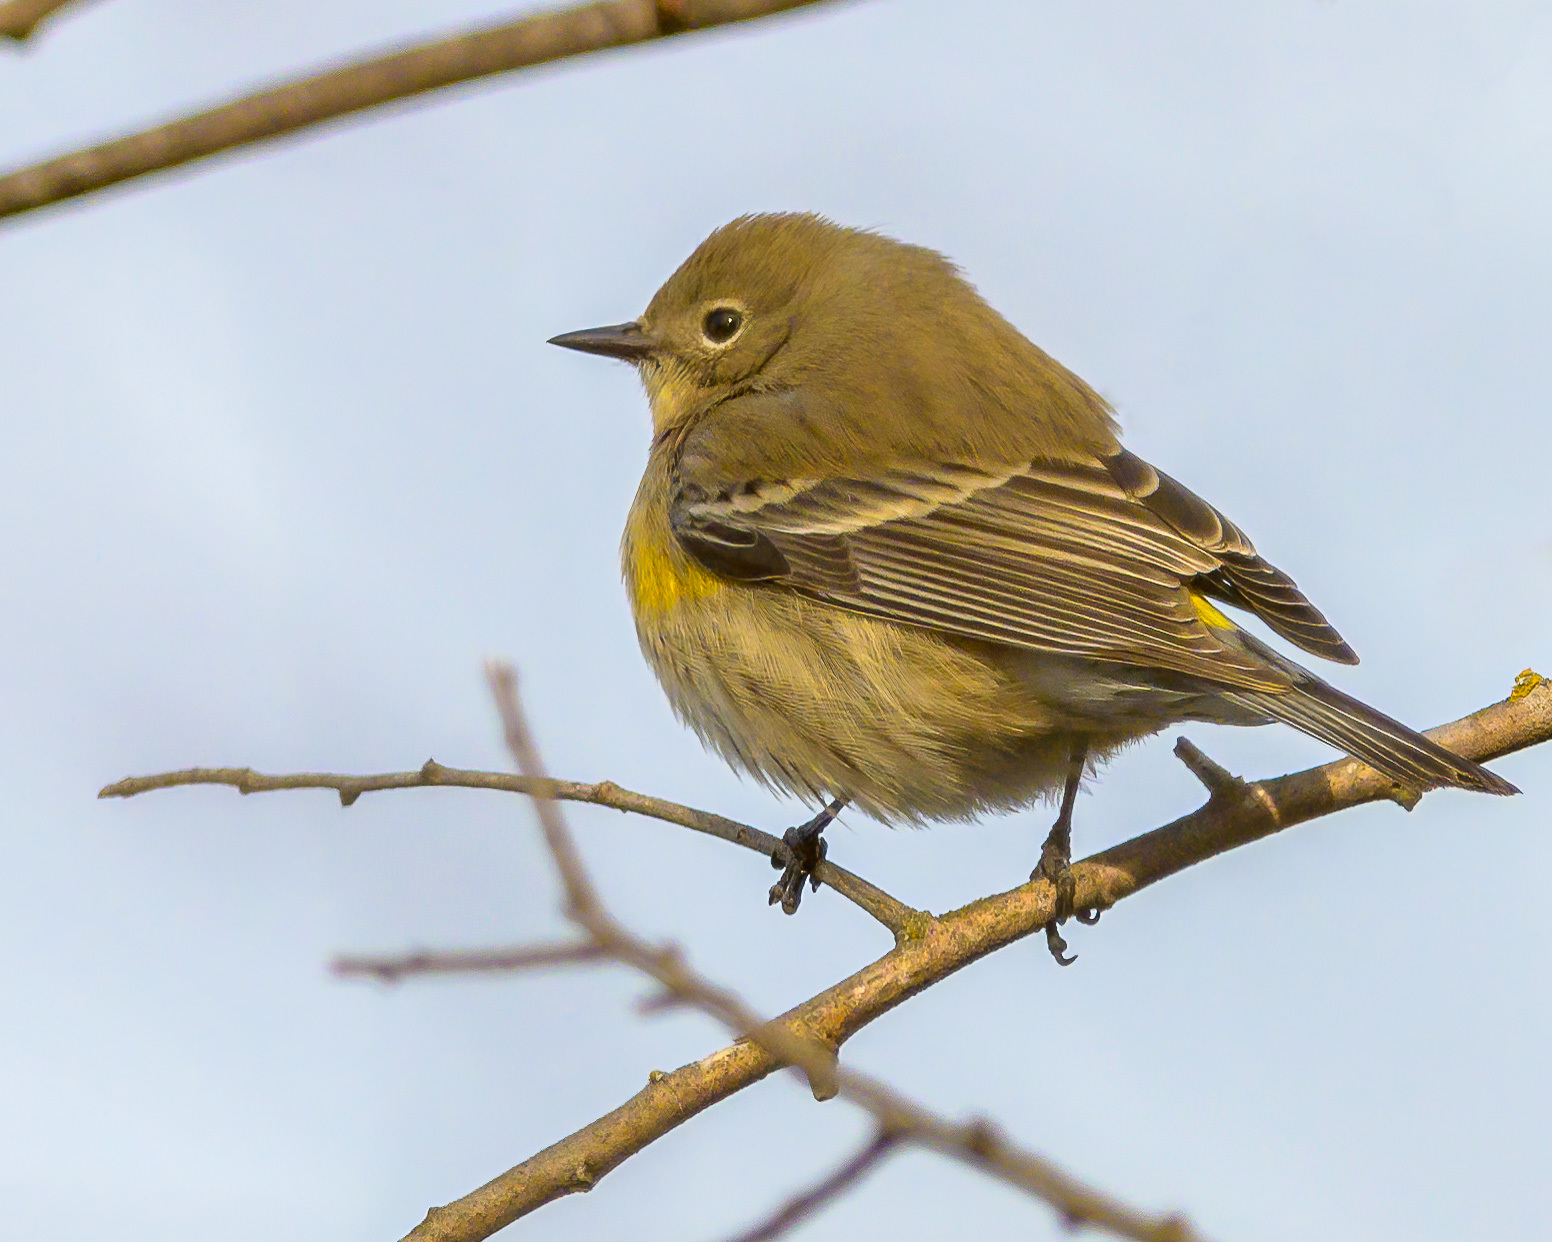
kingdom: Animalia
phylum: Chordata
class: Aves
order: Passeriformes
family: Parulidae
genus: Setophaga
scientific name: Setophaga pinus
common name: Pine warbler
